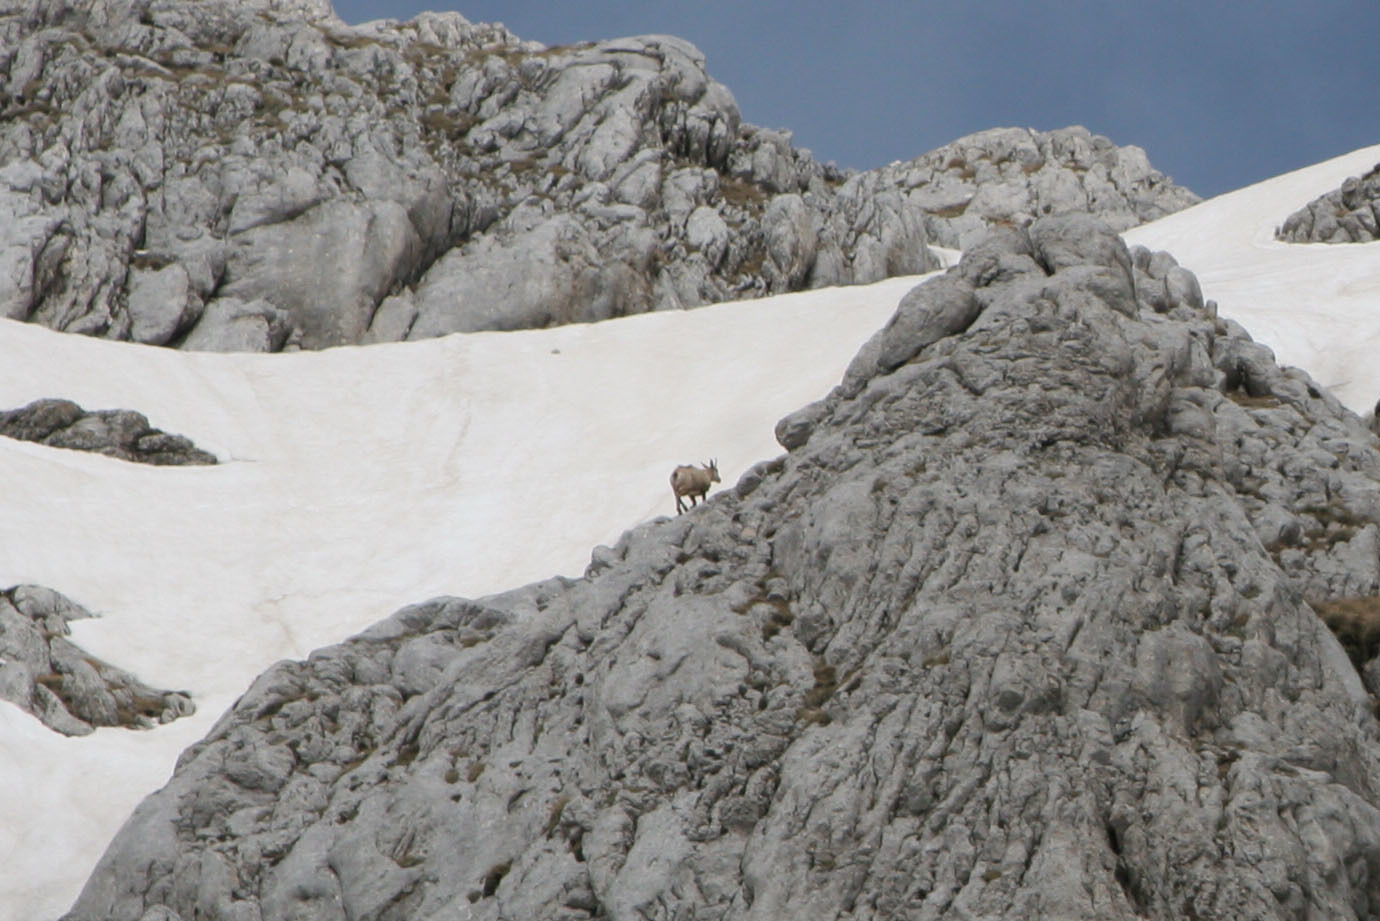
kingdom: Animalia
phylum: Chordata
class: Mammalia
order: Artiodactyla
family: Bovidae
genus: Rupicapra
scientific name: Rupicapra rupicapra
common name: Chamois
